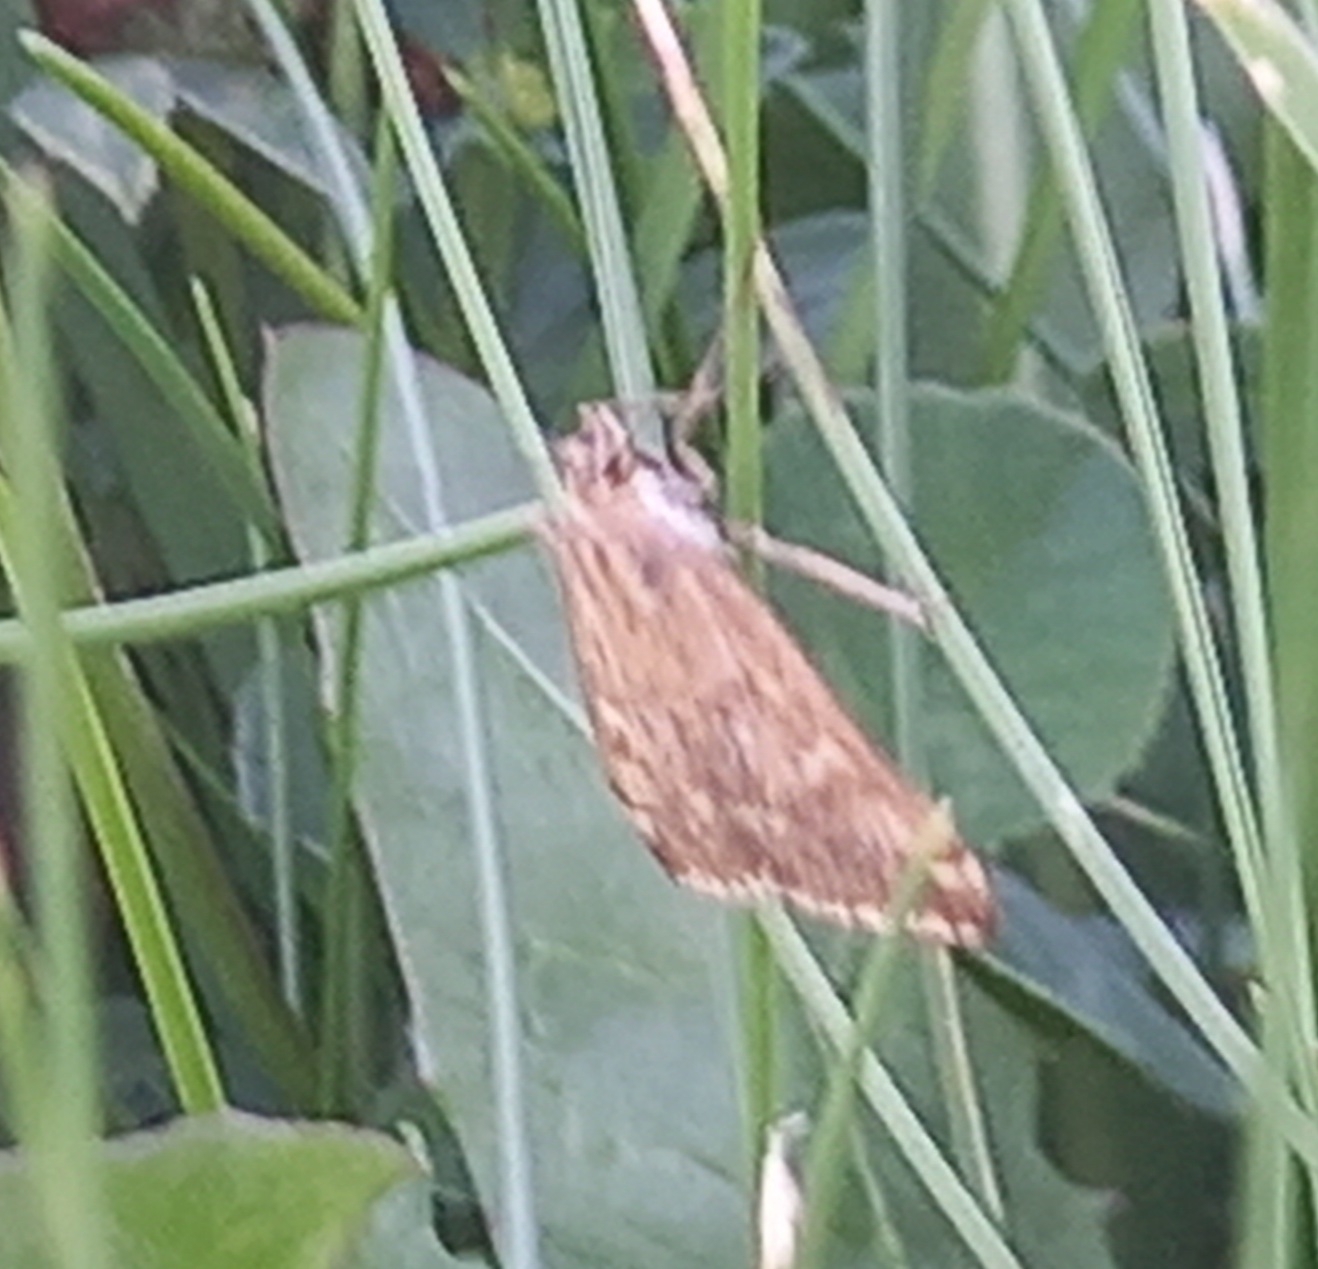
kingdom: Animalia
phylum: Arthropoda
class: Insecta
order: Lepidoptera
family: Crambidae
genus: Loxostege
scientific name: Loxostege sticticalis
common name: Crambid moth
